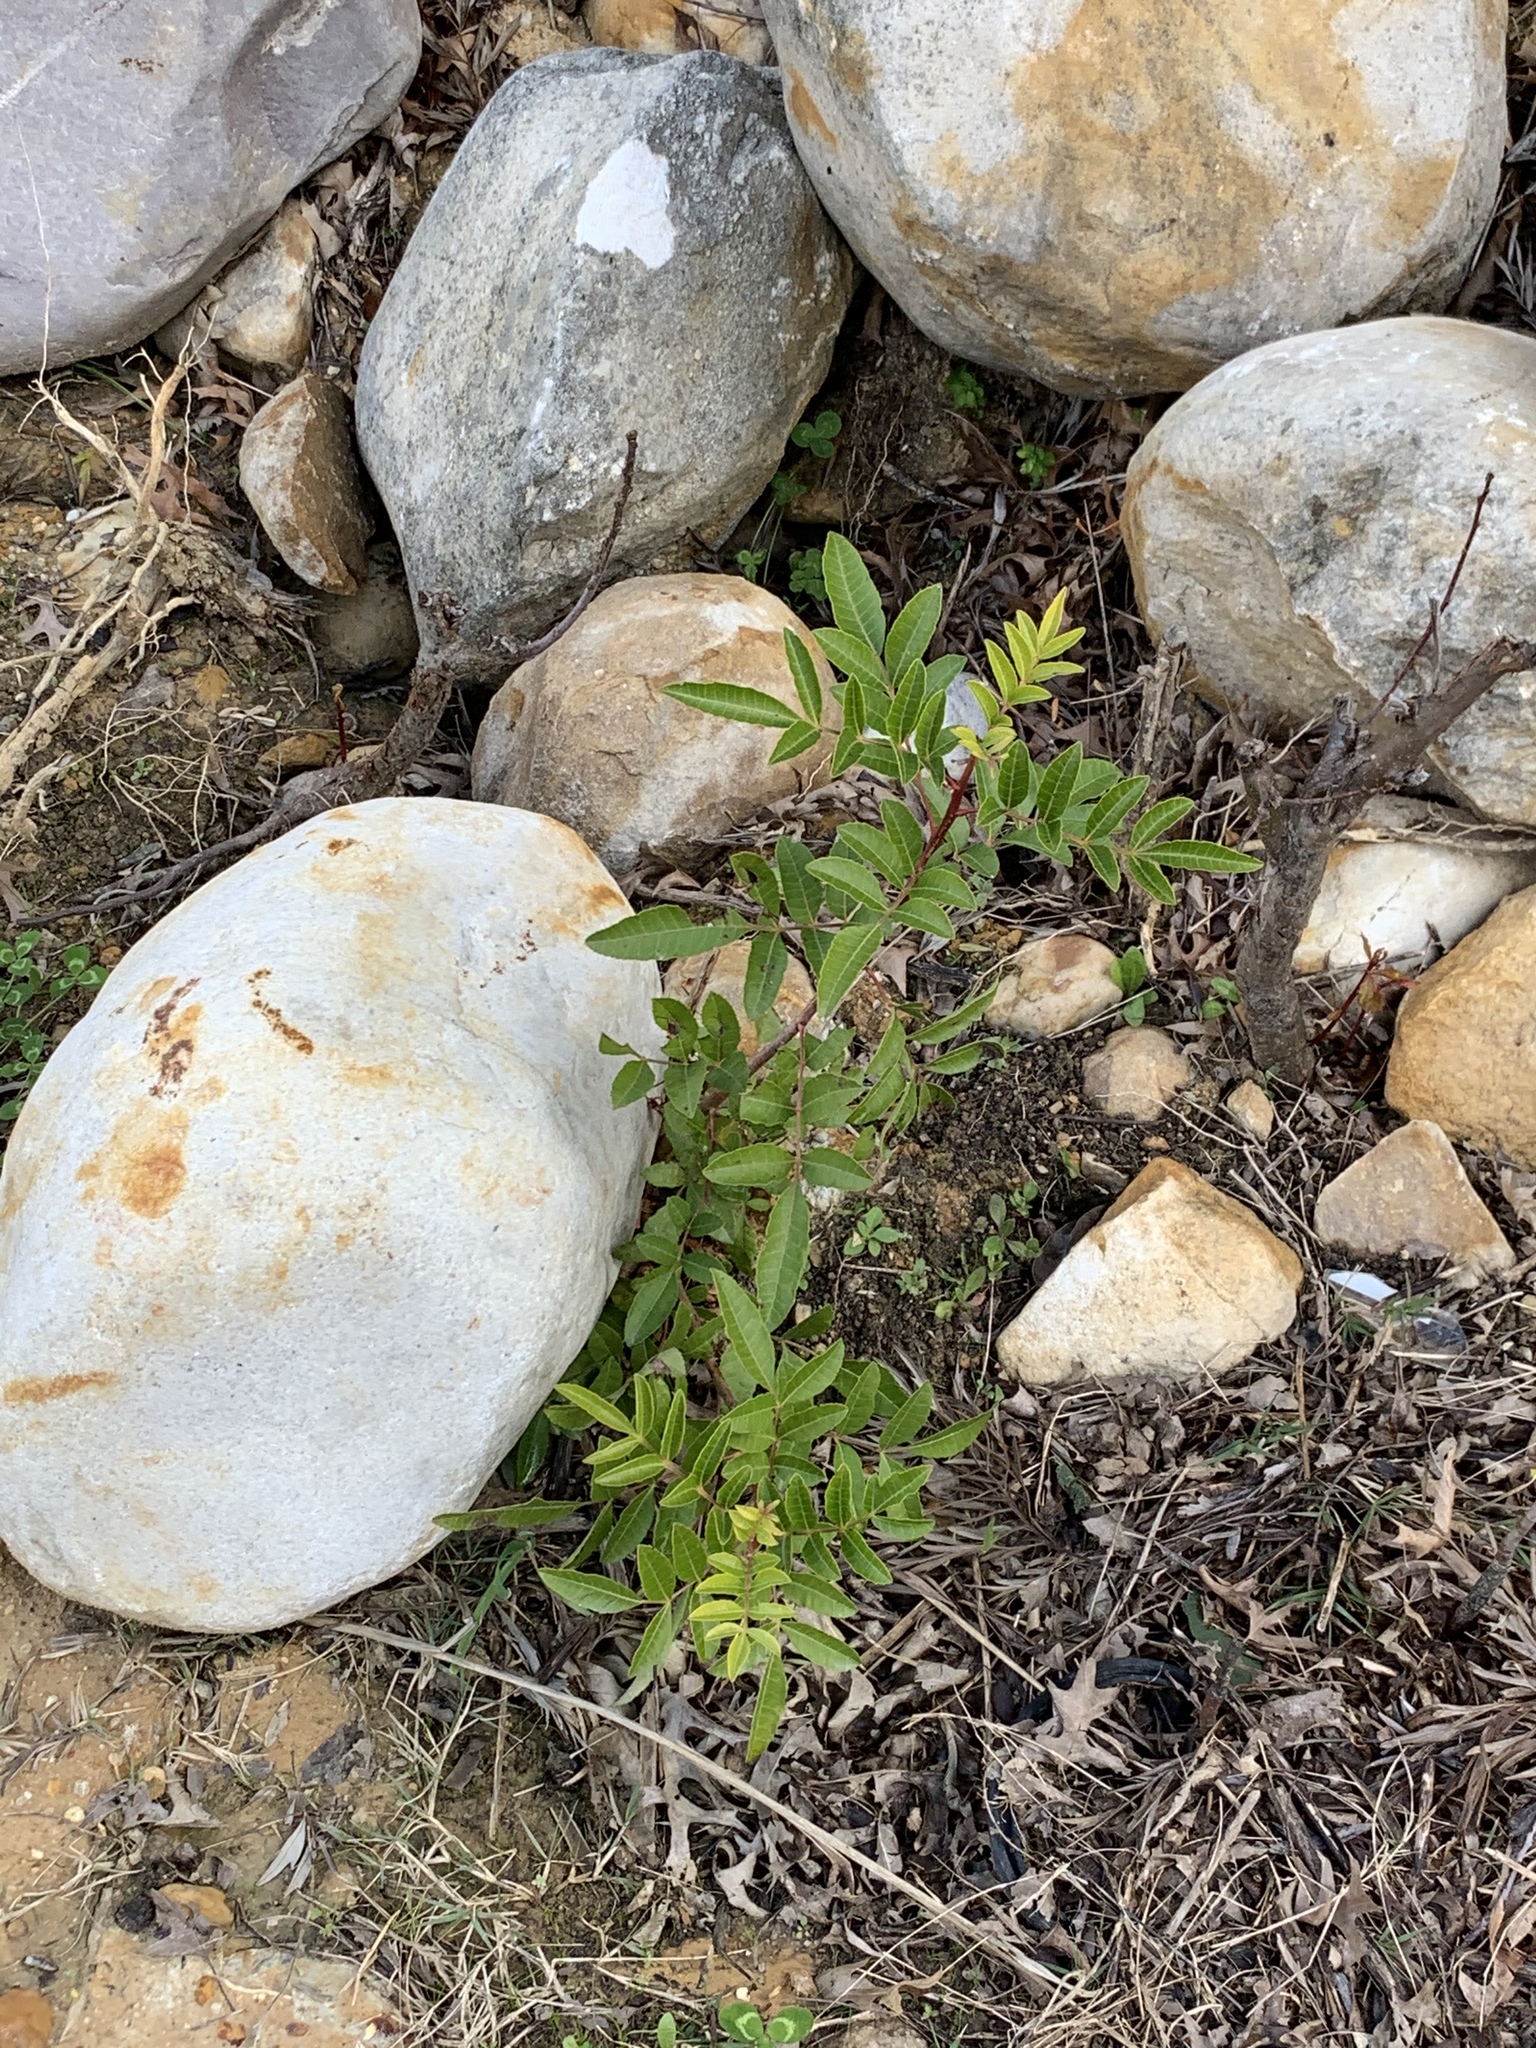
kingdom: Plantae
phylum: Tracheophyta
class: Magnoliopsida
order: Sapindales
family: Anacardiaceae
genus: Schinus
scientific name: Schinus terebinthifolia
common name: Brazilian peppertree
